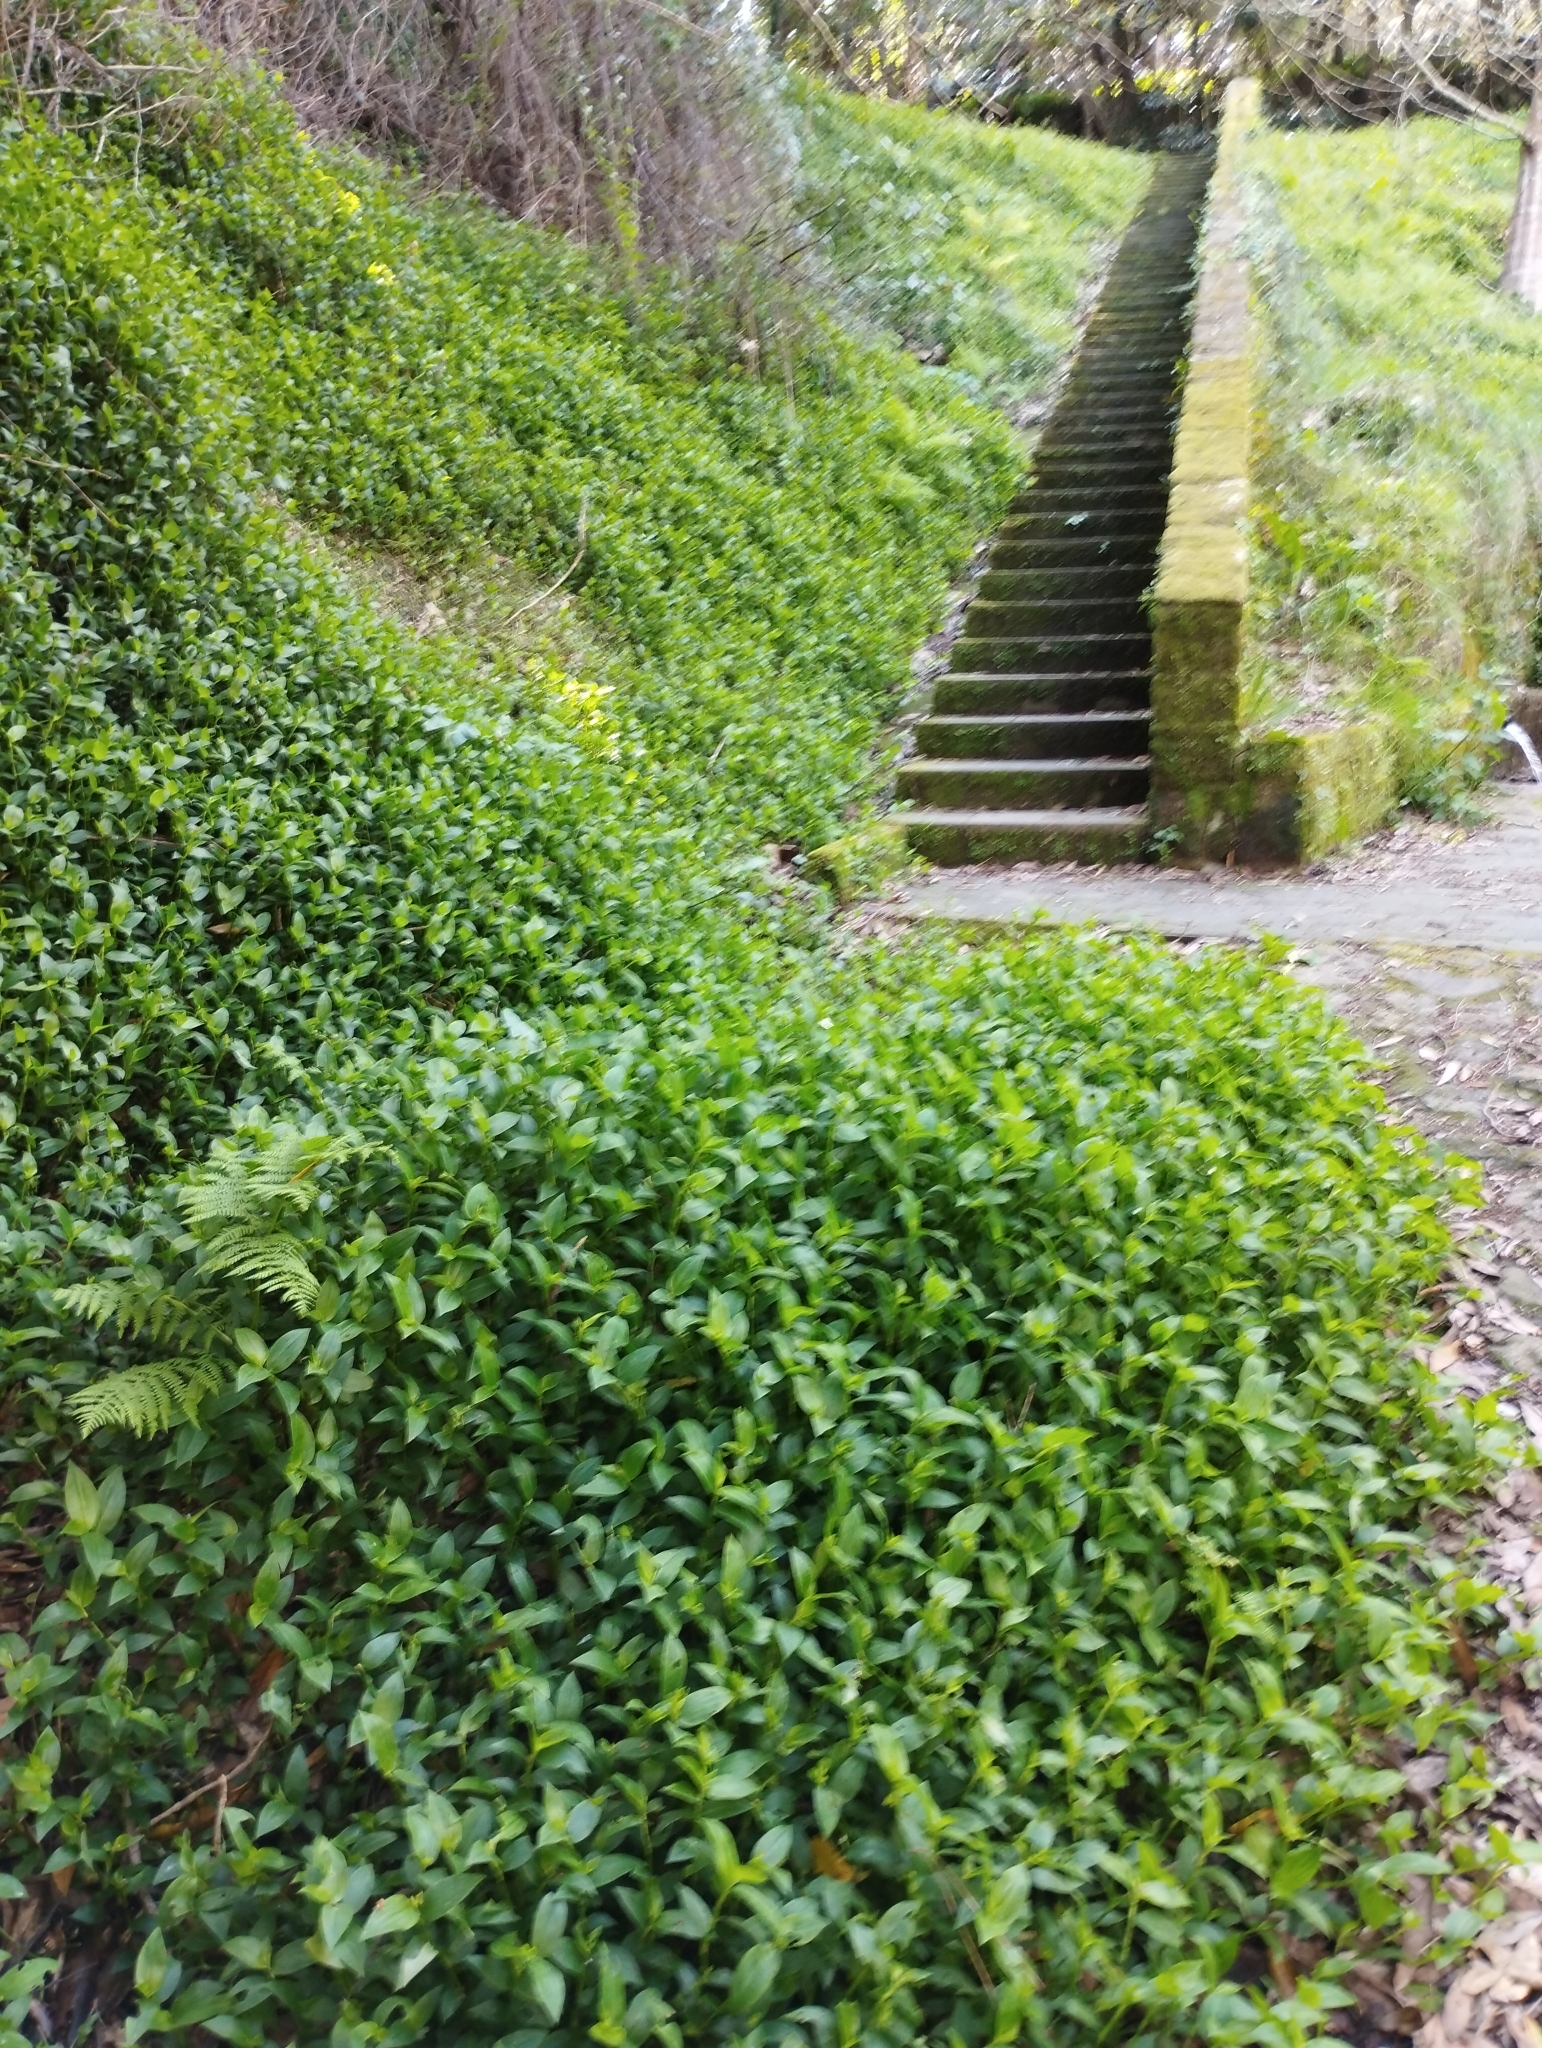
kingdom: Plantae
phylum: Tracheophyta
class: Liliopsida
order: Commelinales
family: Commelinaceae
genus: Tradescantia
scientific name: Tradescantia fluminensis
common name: Wandering-jew
